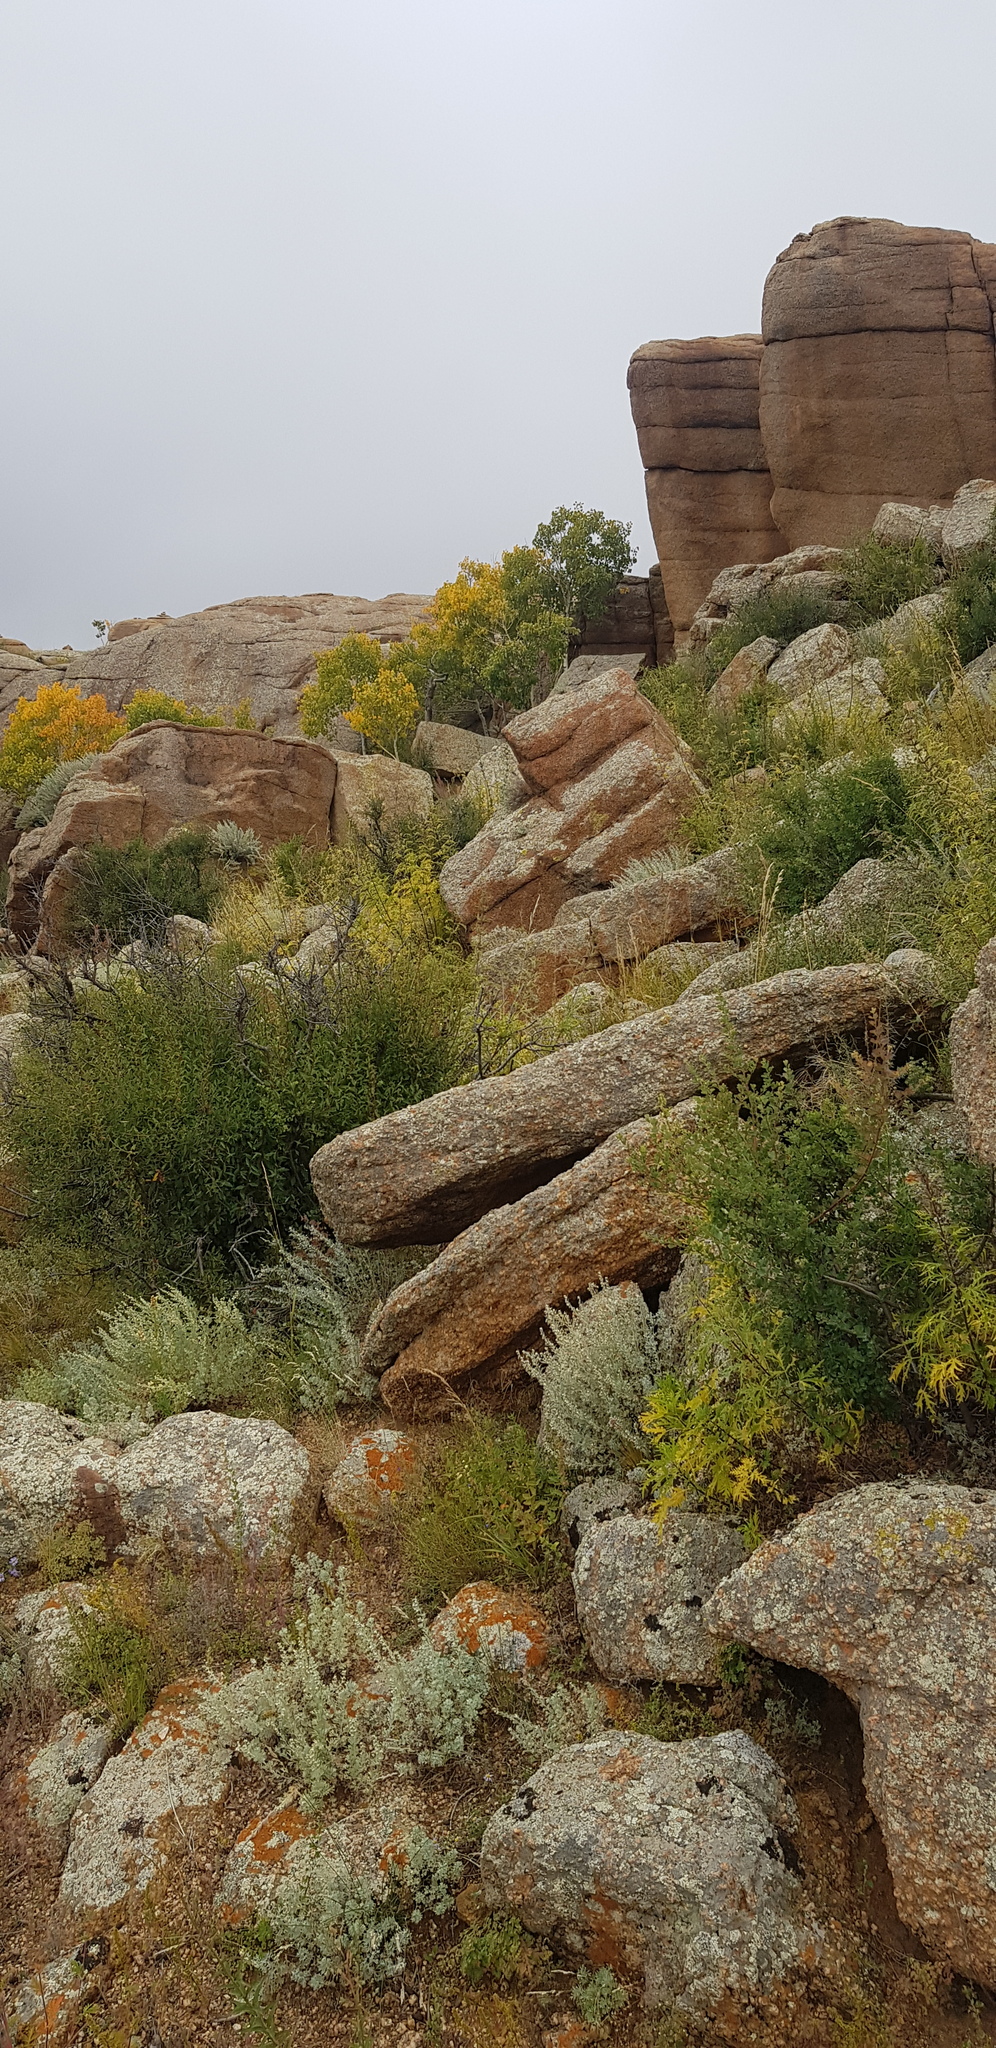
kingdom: Plantae
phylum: Tracheophyta
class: Magnoliopsida
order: Rosales
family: Rosaceae
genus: Prunus
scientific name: Prunus pedunculata
